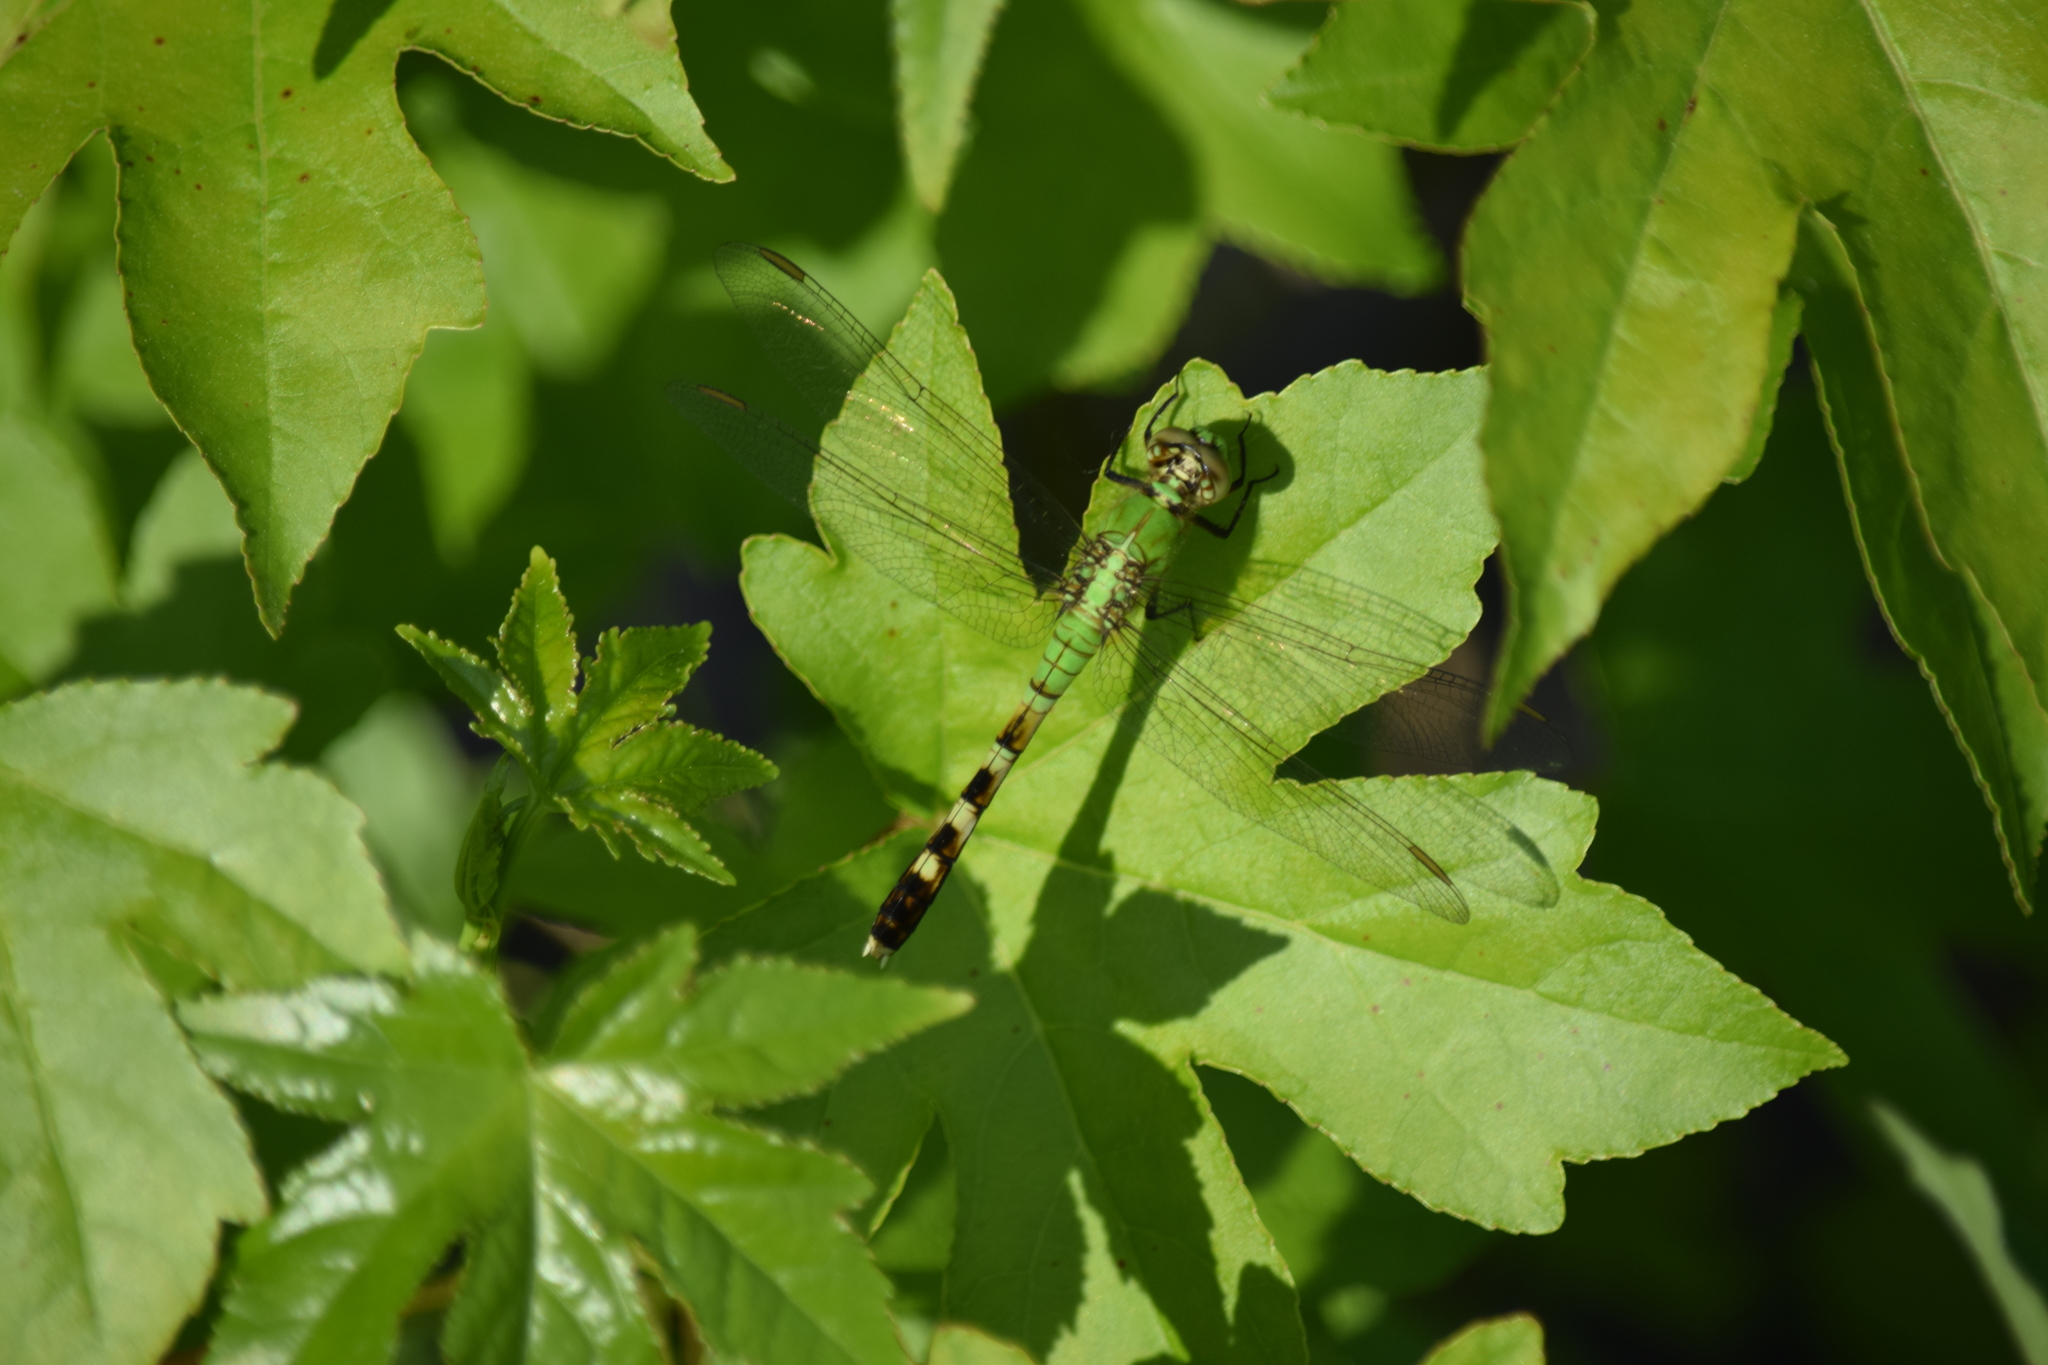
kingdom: Animalia
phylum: Arthropoda
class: Insecta
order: Odonata
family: Libellulidae
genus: Erythemis
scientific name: Erythemis simplicicollis
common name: Eastern pondhawk
